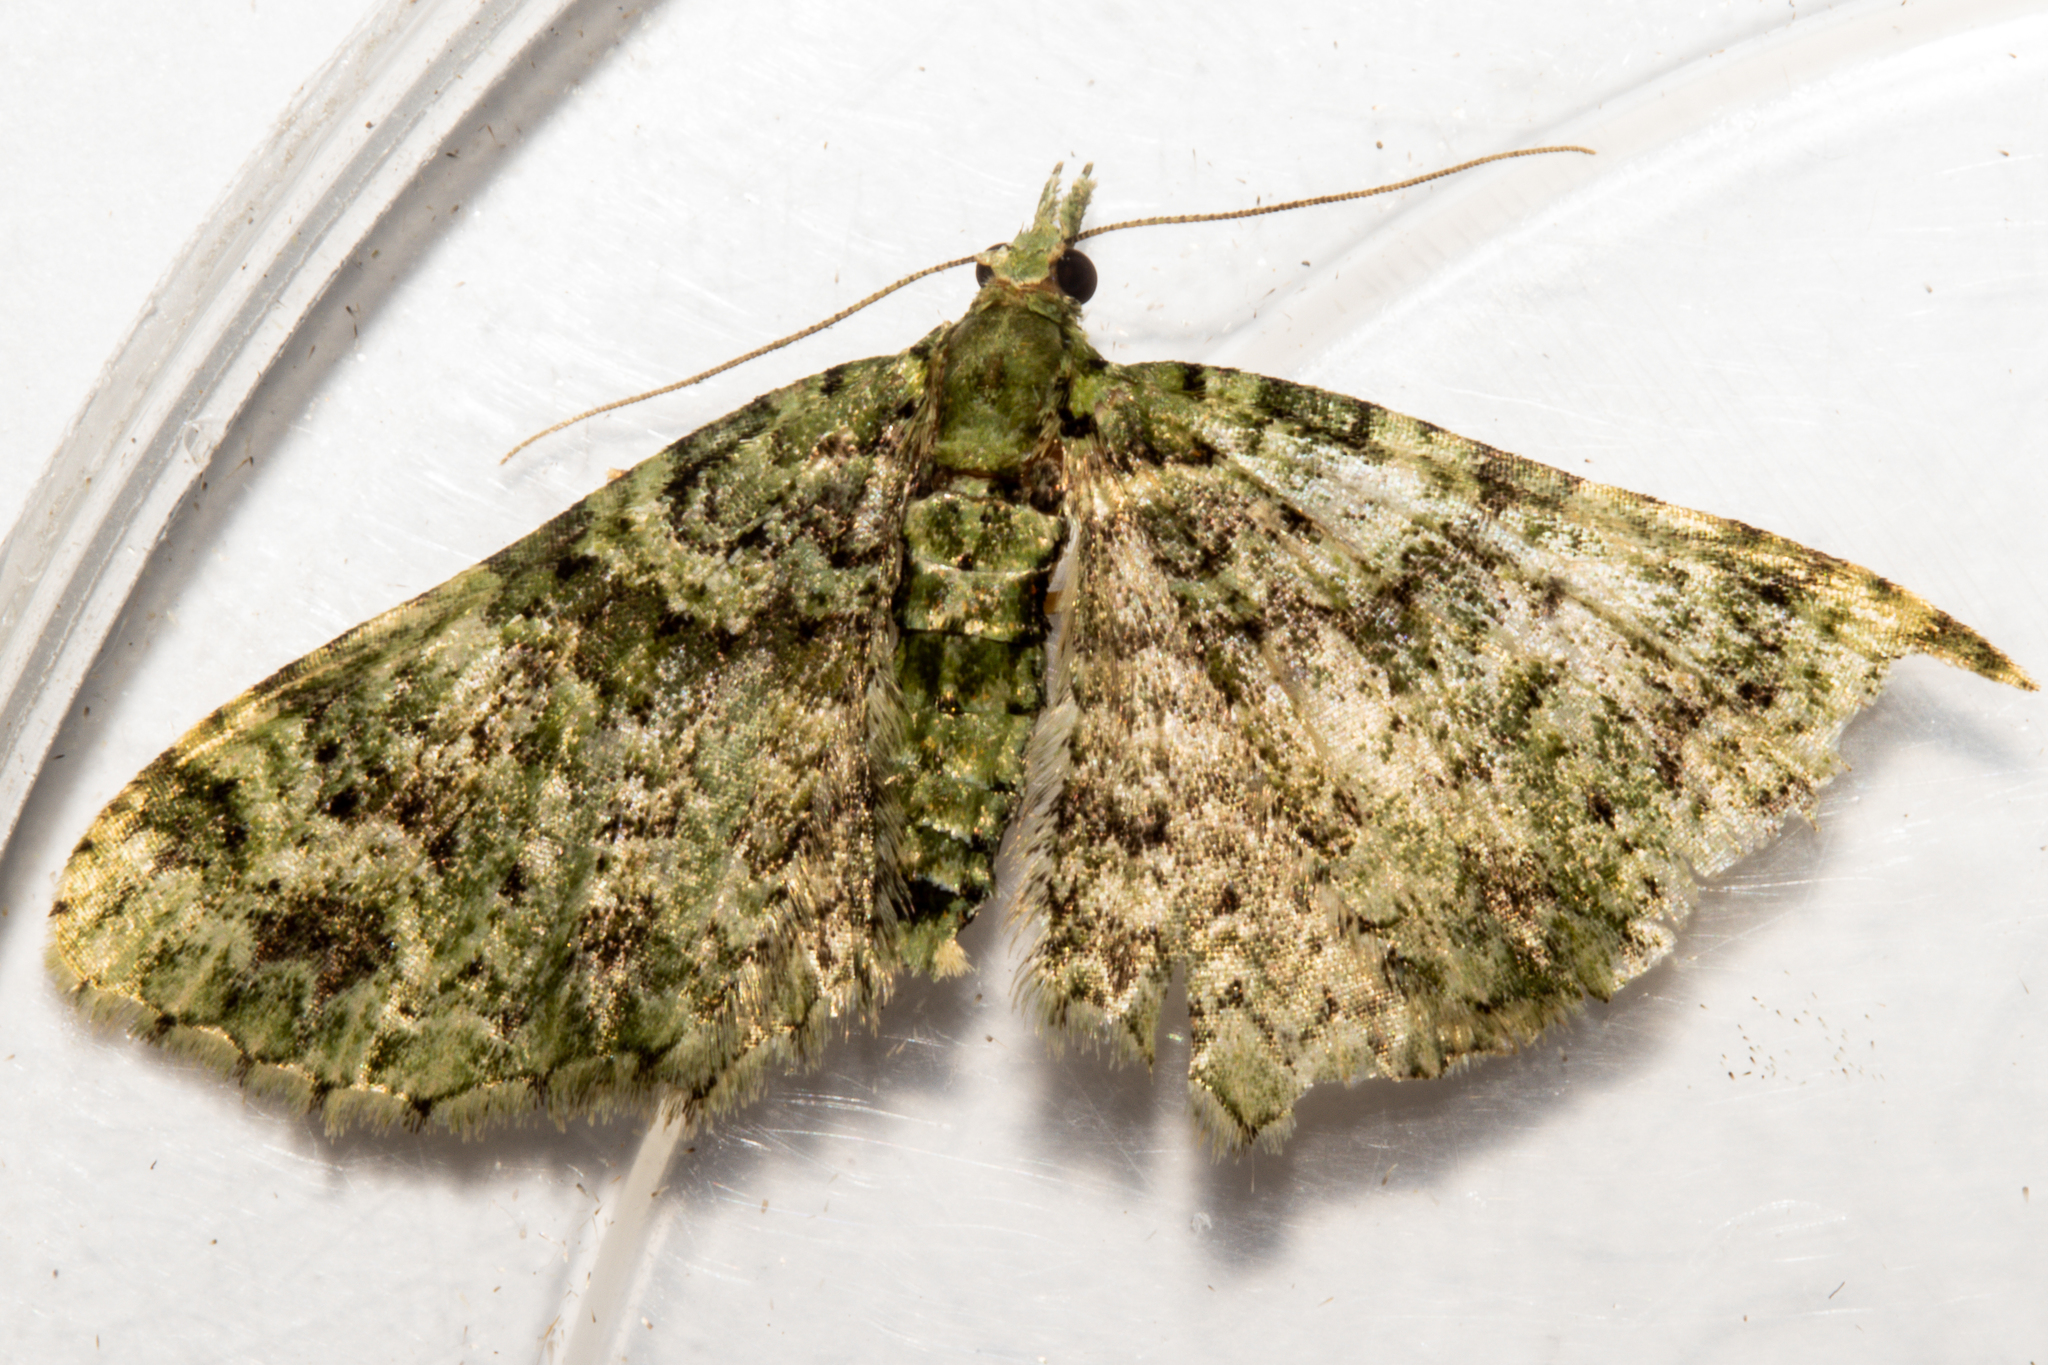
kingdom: Animalia
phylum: Arthropoda
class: Insecta
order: Lepidoptera
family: Geometridae
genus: Pasiphila
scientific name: Pasiphila muscosata
